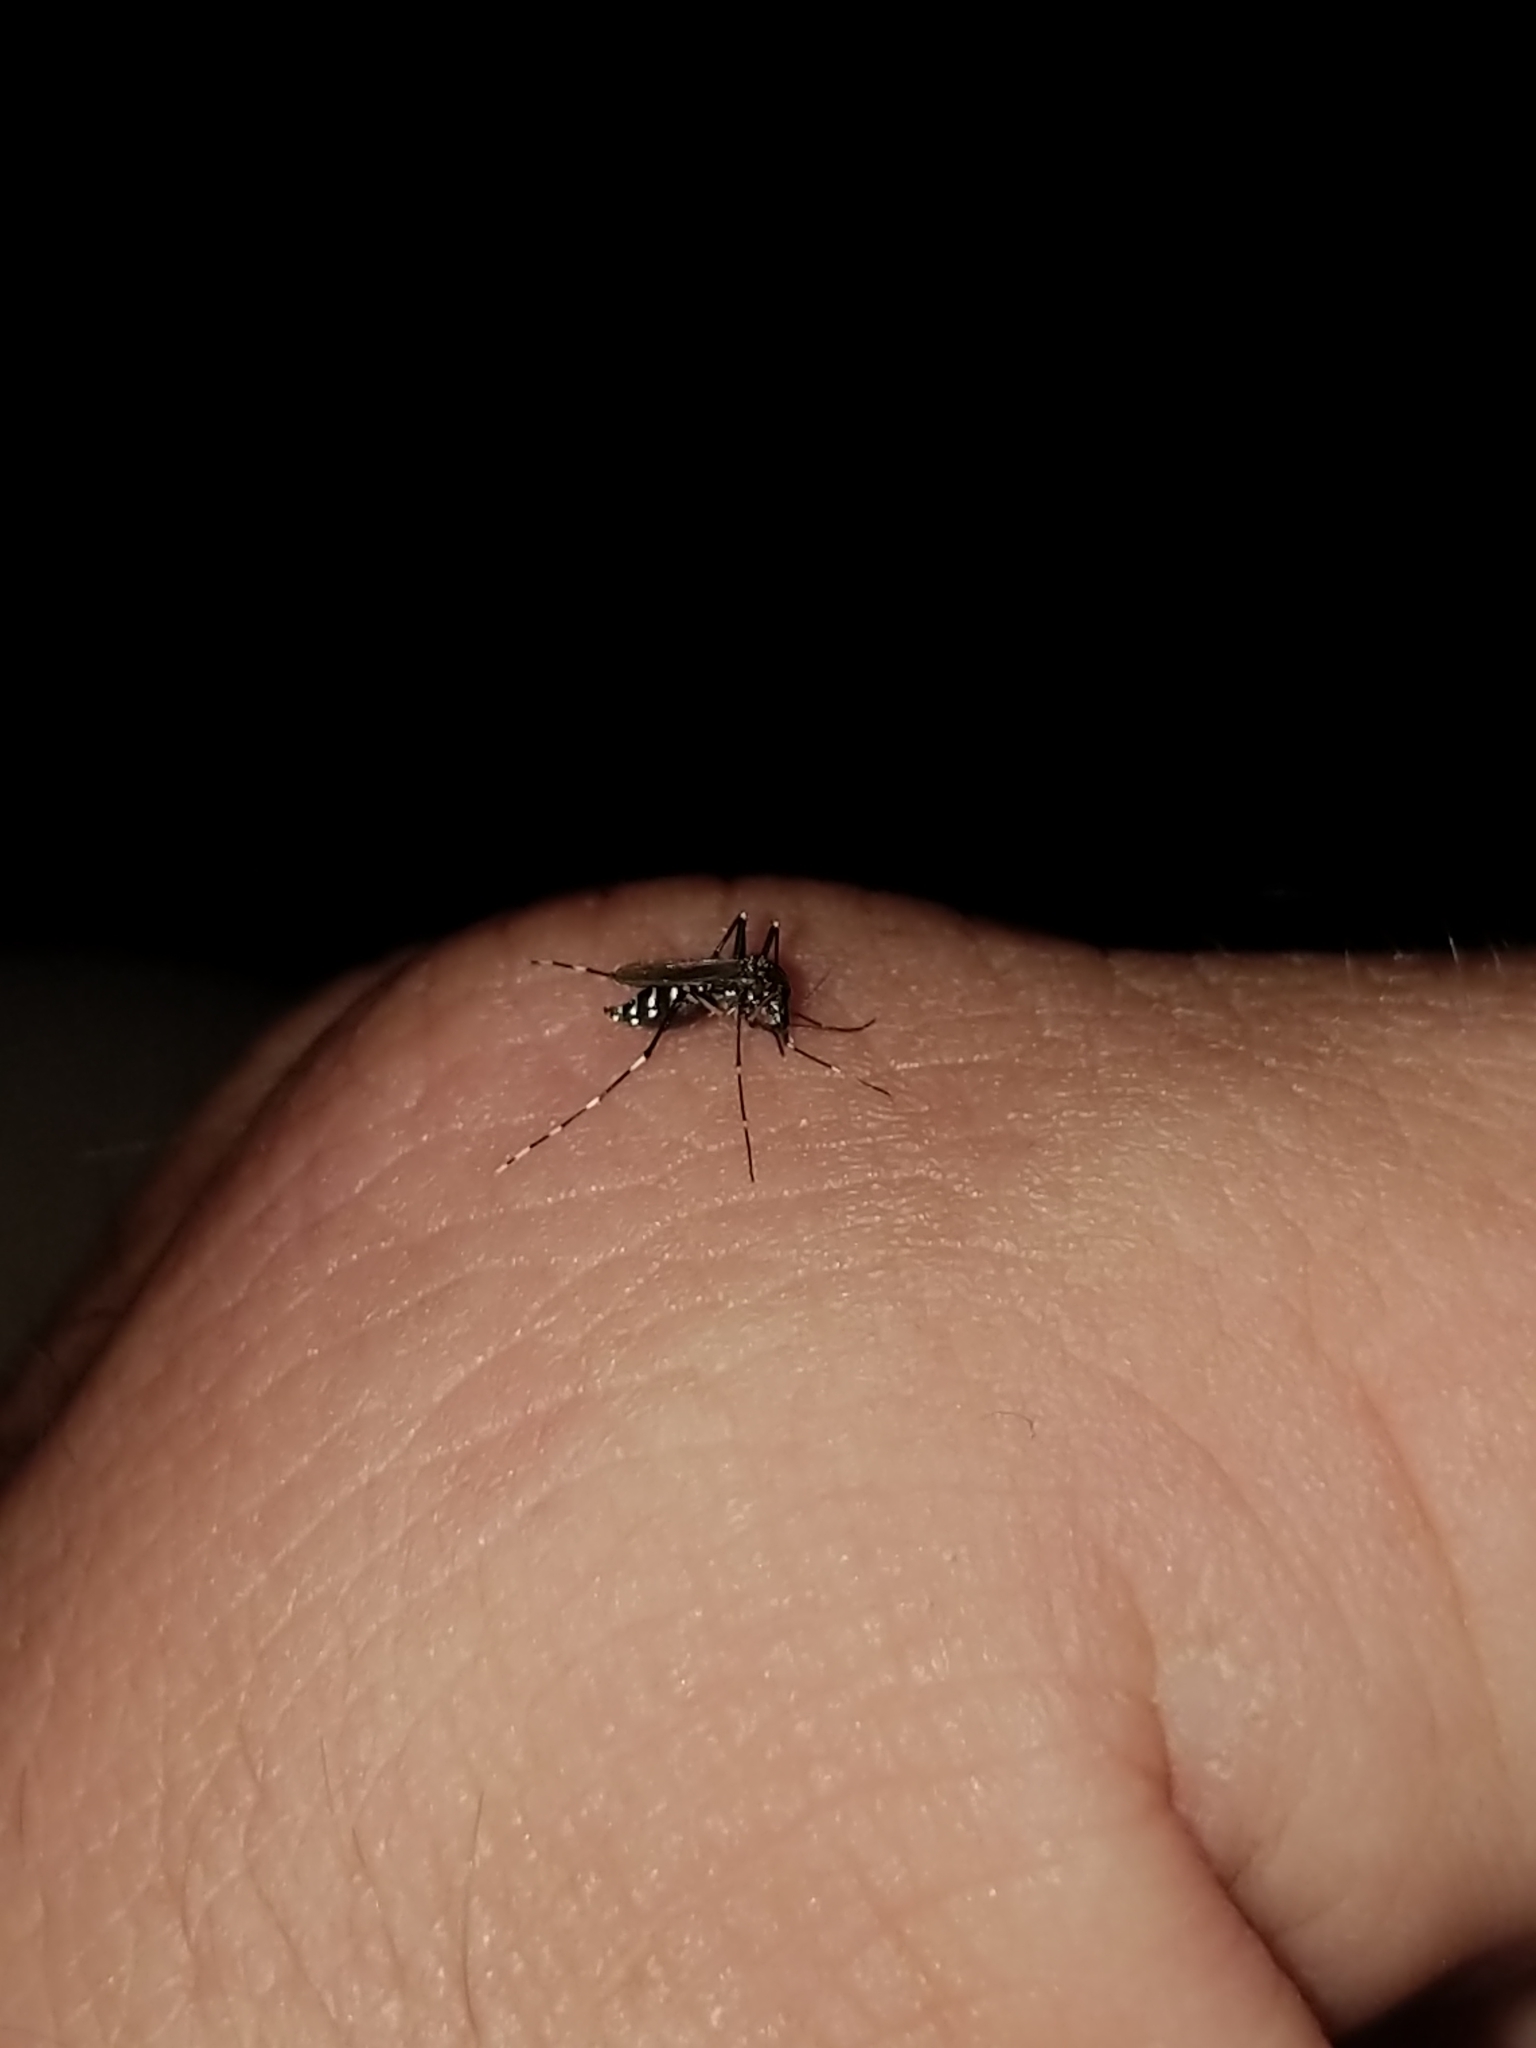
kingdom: Animalia
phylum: Arthropoda
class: Insecta
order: Diptera
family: Culicidae
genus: Aedes
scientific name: Aedes albopictus
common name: Tiger mosquito
